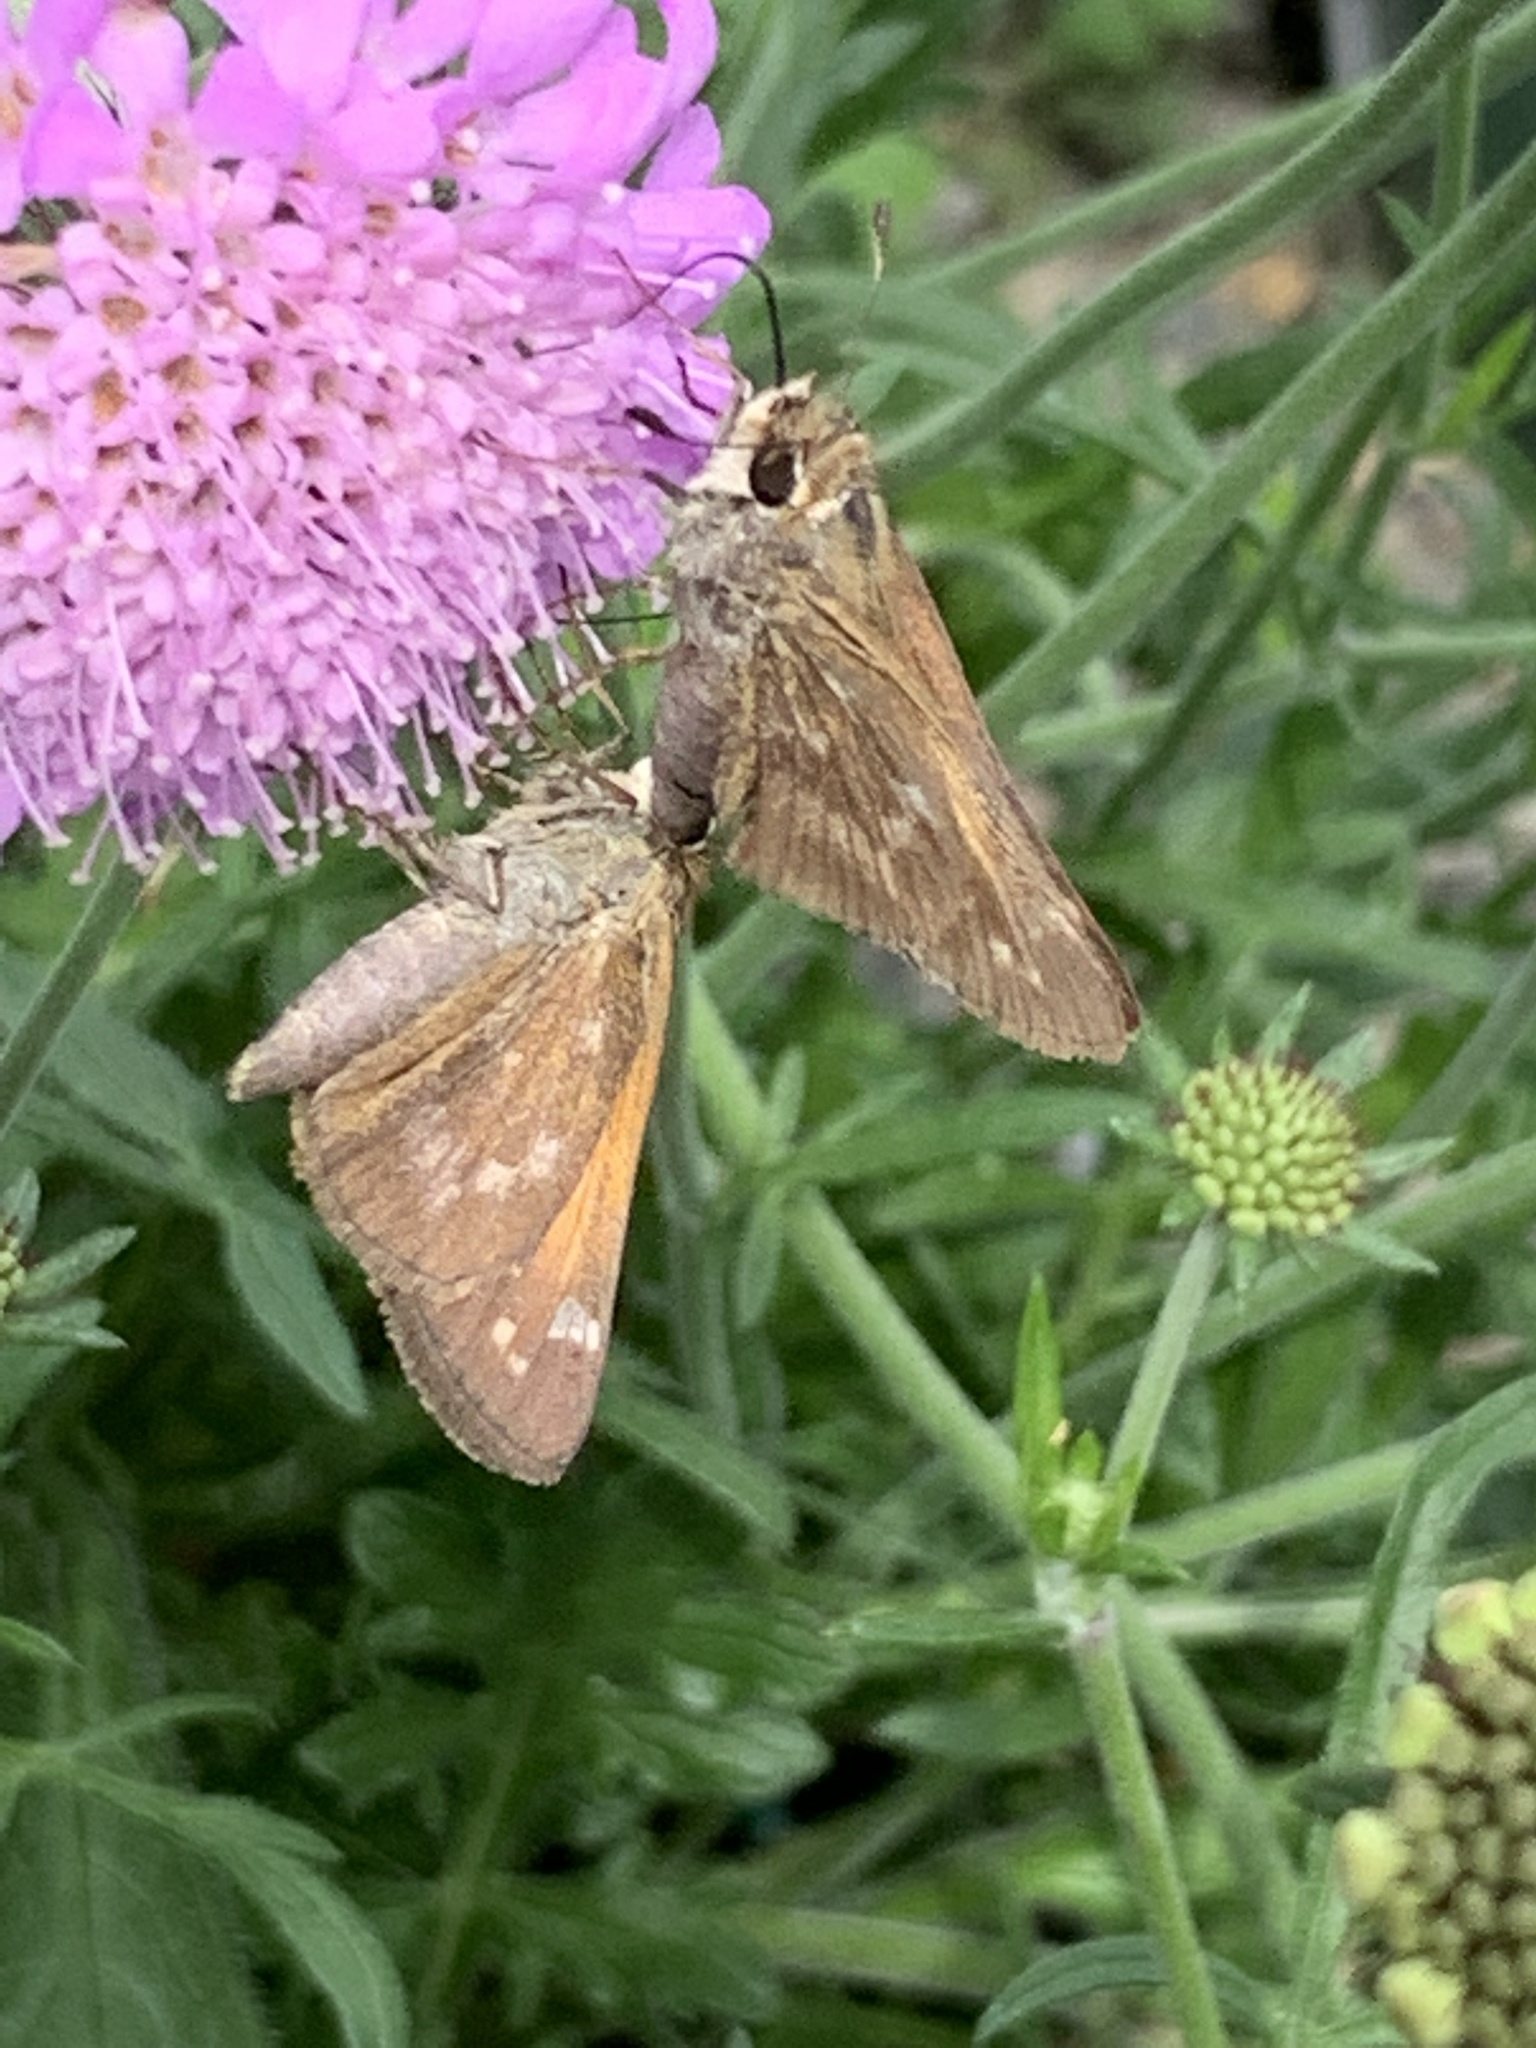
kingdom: Animalia
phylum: Arthropoda
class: Insecta
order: Lepidoptera
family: Hesperiidae
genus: Atalopedes
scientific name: Atalopedes
